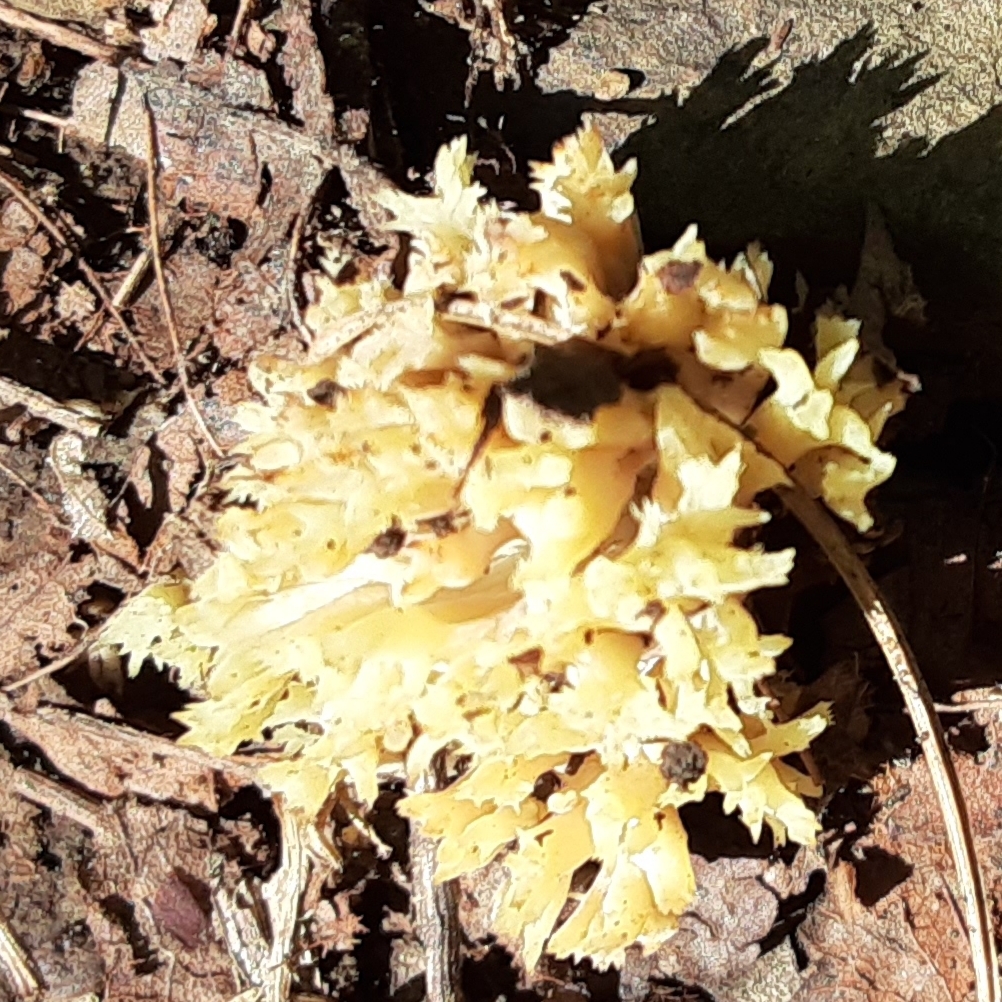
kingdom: Fungi
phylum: Basidiomycota
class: Agaricomycetes
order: Cantharellales
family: Hydnaceae
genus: Clavulina
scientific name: Clavulina coralloides
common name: Crested coral
